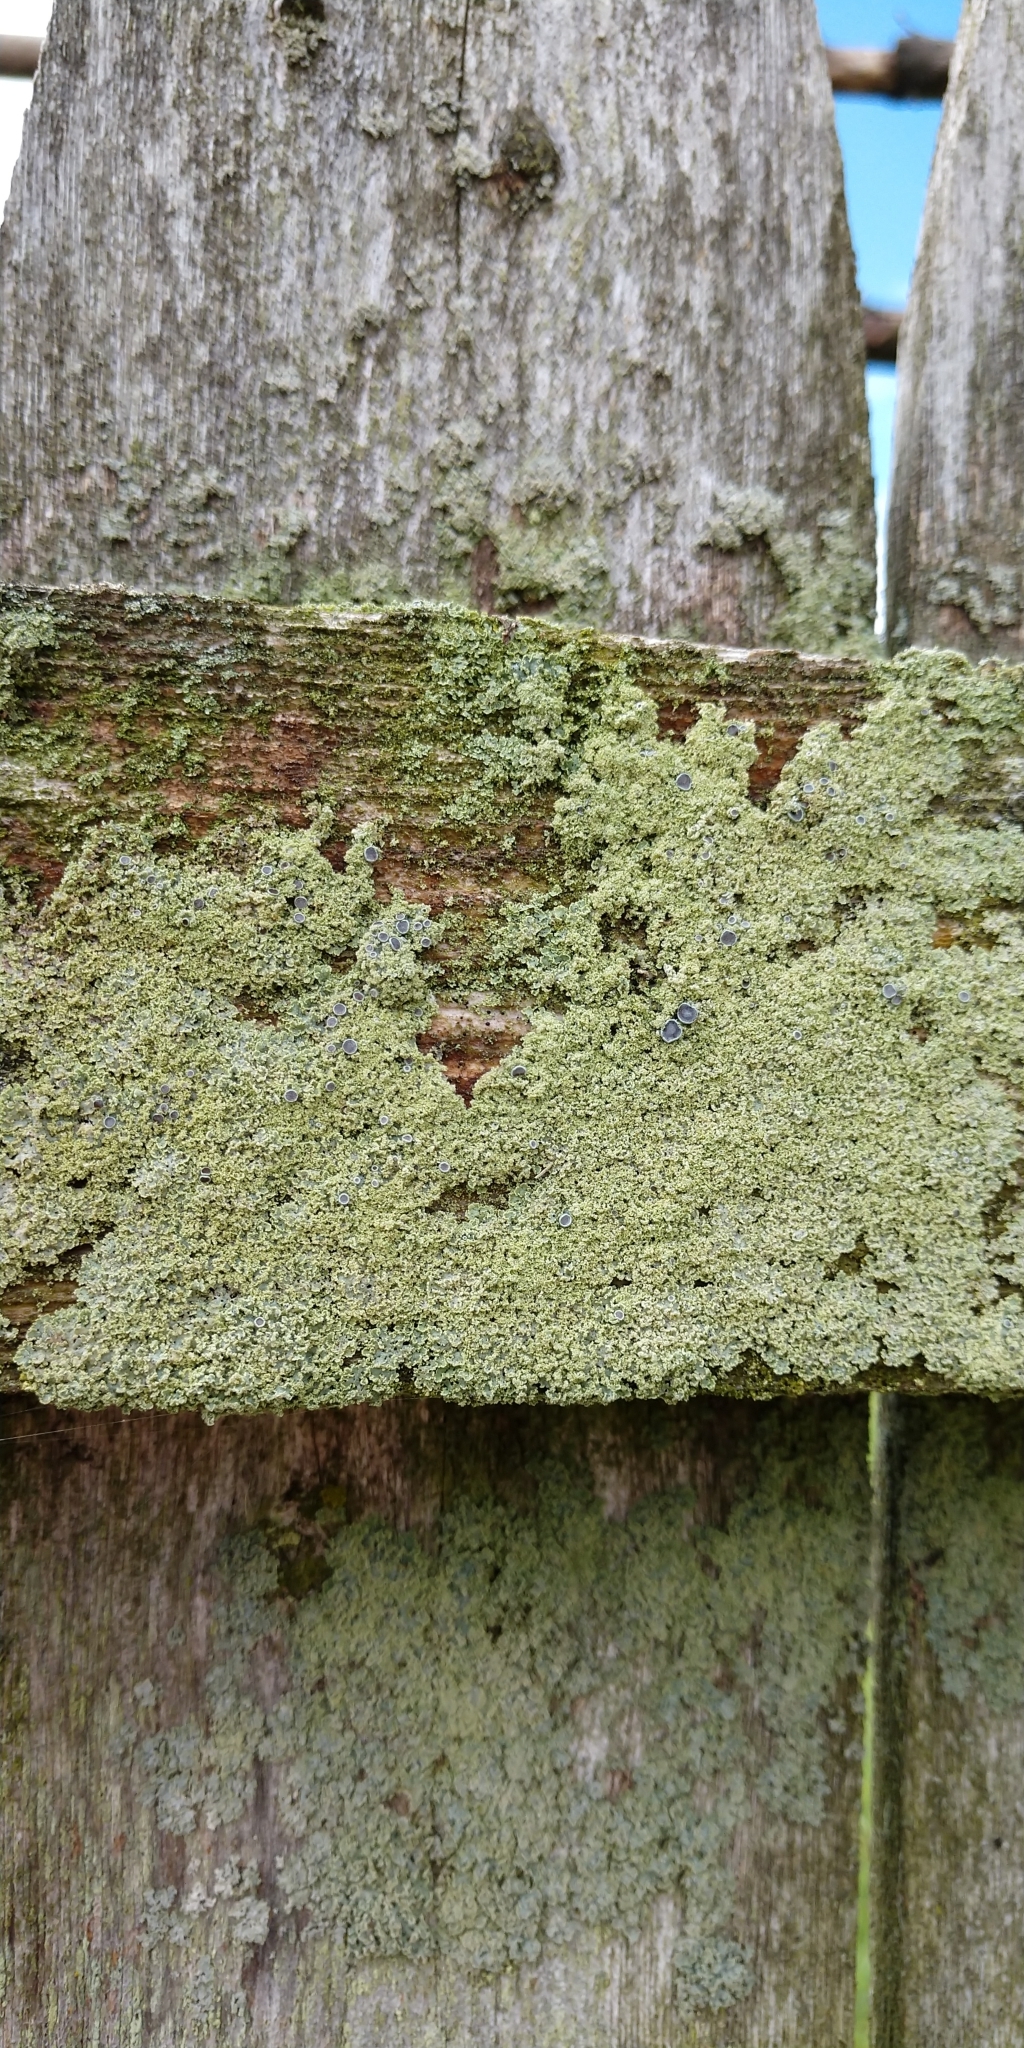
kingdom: Fungi
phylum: Ascomycota
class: Lecanoromycetes
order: Caliciales
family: Physciaceae
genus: Physcia
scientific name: Physcia millegrana
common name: Rosette lichen
